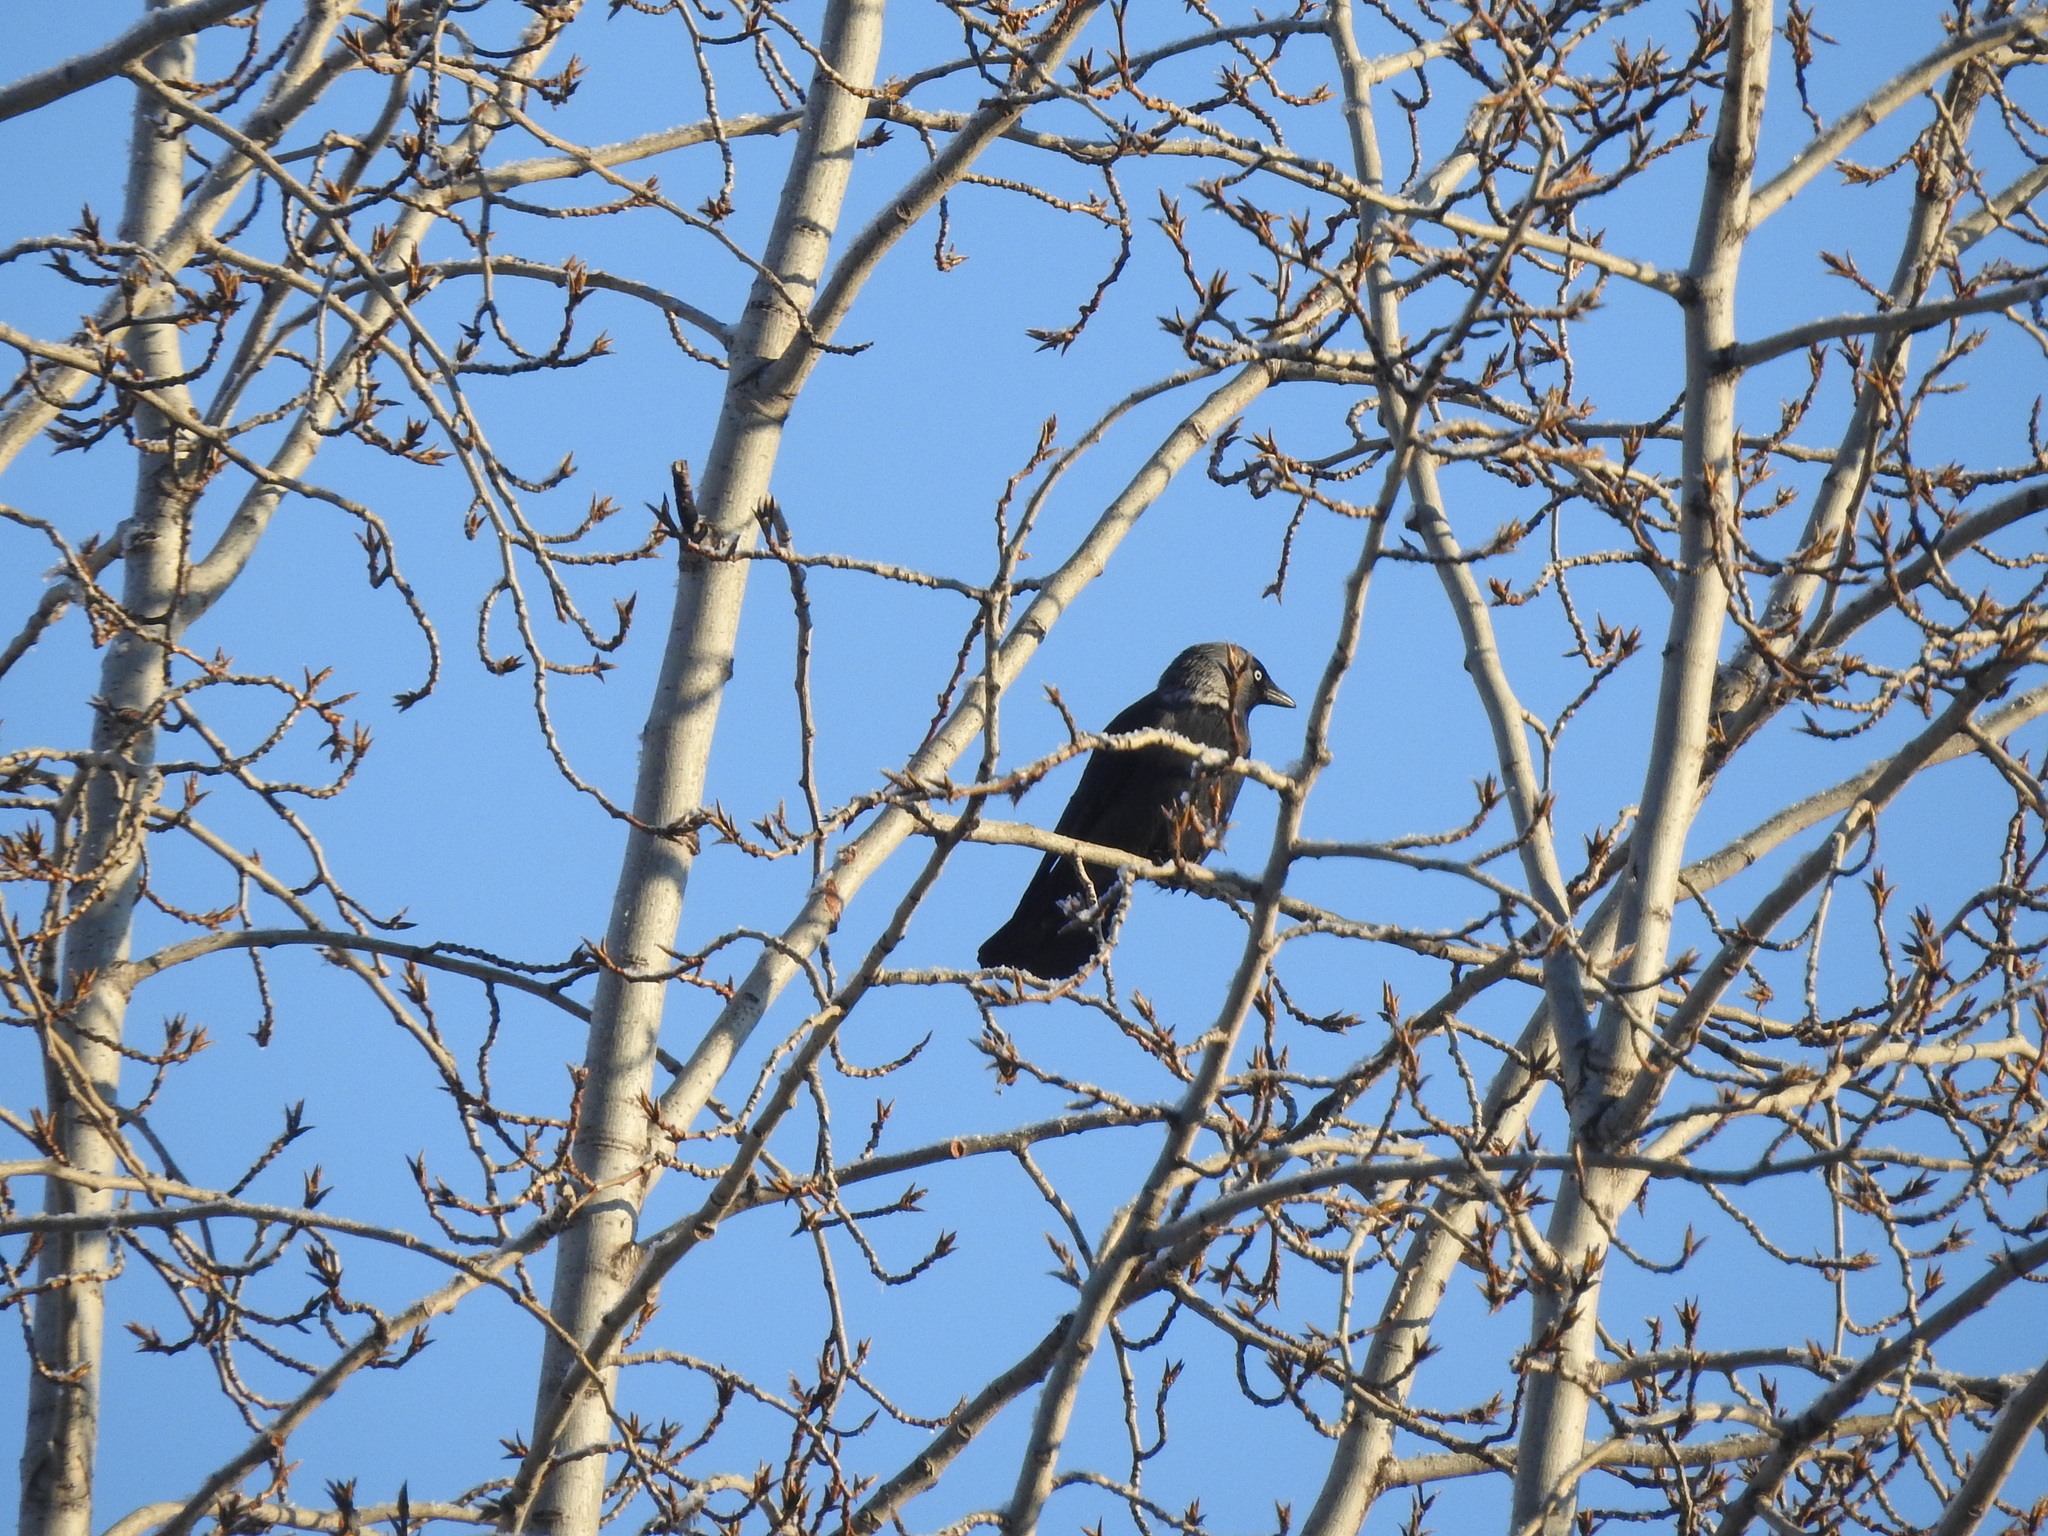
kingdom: Animalia
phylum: Chordata
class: Aves
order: Passeriformes
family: Corvidae
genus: Coloeus
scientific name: Coloeus monedula
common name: Western jackdaw
